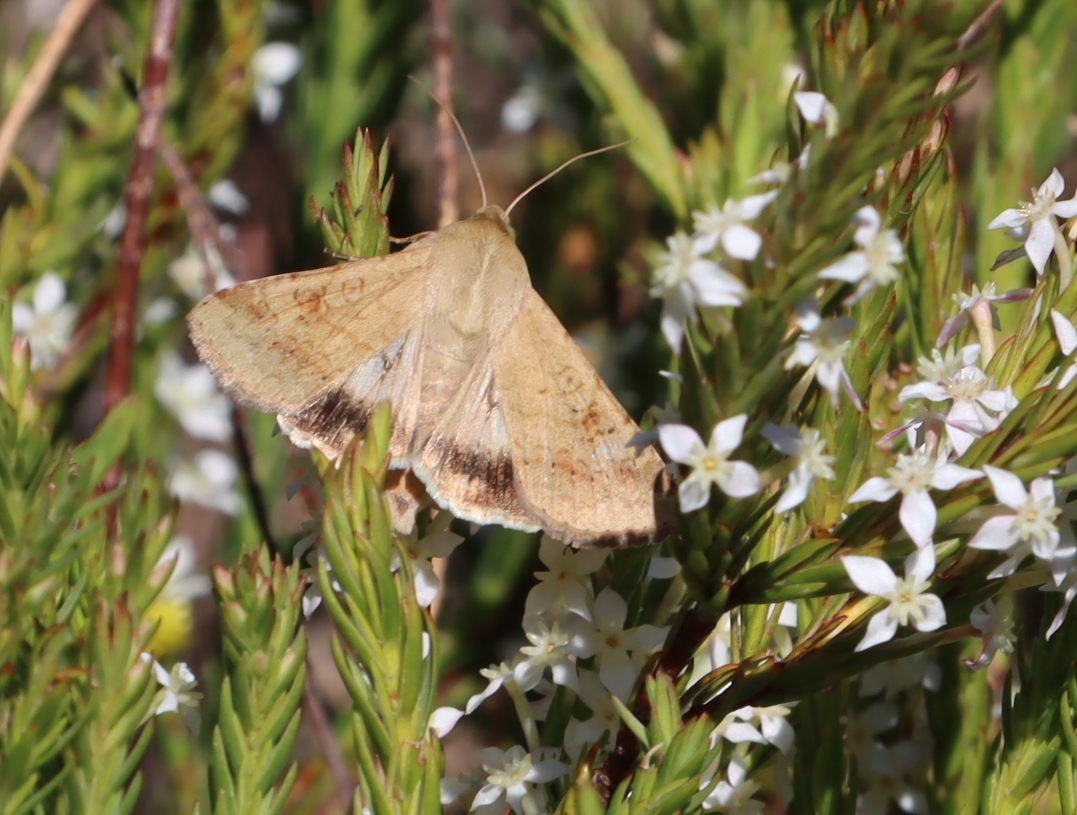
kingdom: Animalia
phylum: Arthropoda
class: Insecta
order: Lepidoptera
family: Noctuidae
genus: Helicoverpa
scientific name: Helicoverpa armigera
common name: Cotton bollworm
